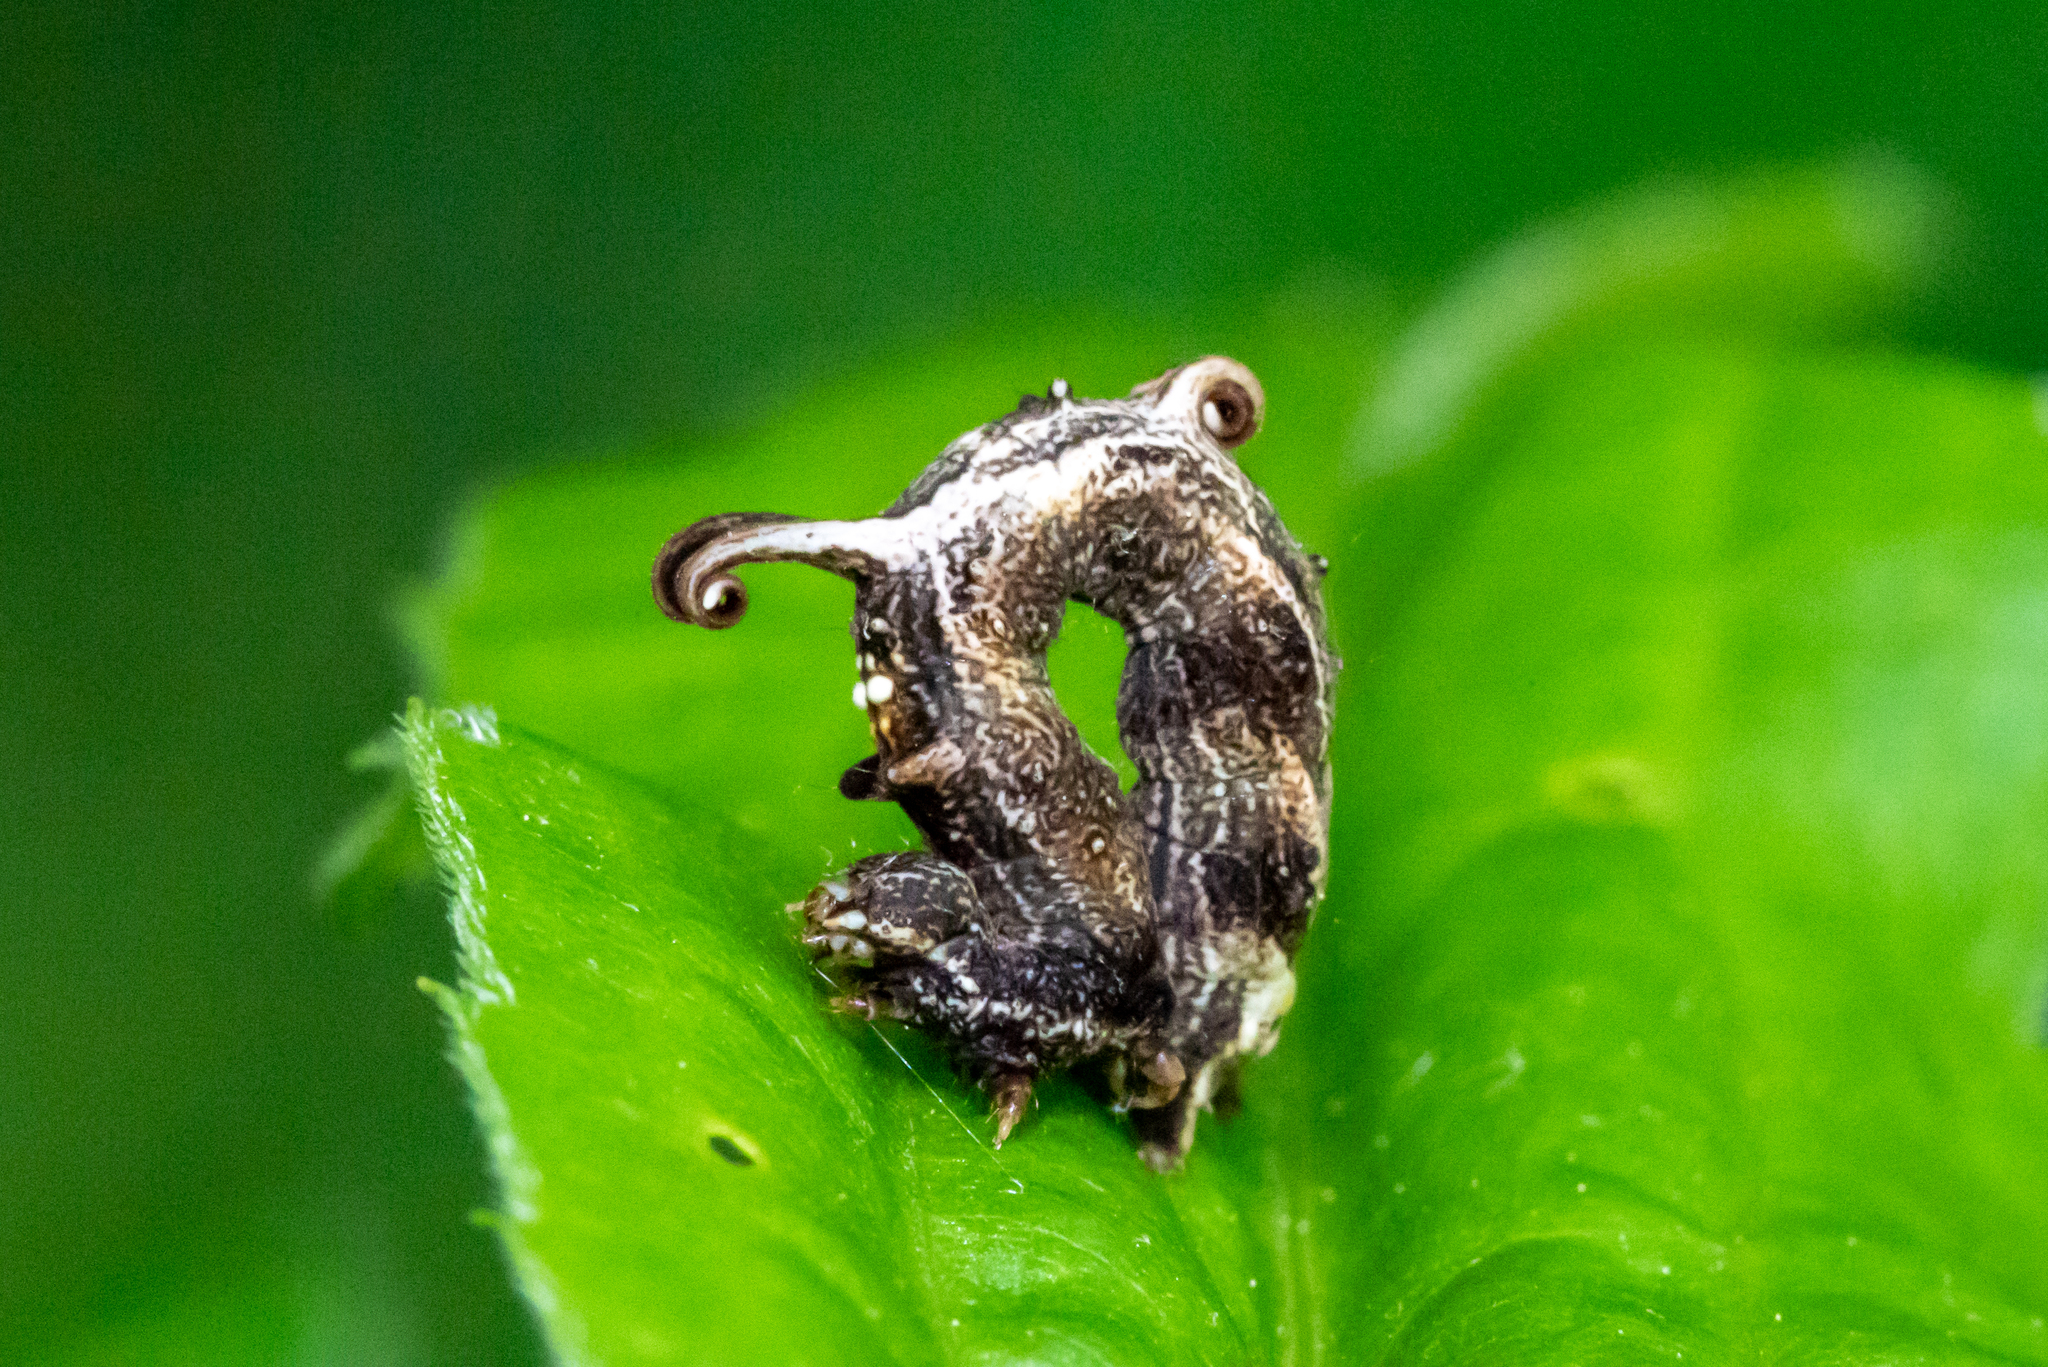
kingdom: Animalia
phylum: Arthropoda
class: Insecta
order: Lepidoptera
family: Geometridae
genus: Nematocampa
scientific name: Nematocampa resistaria
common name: Horned spanworm moth
